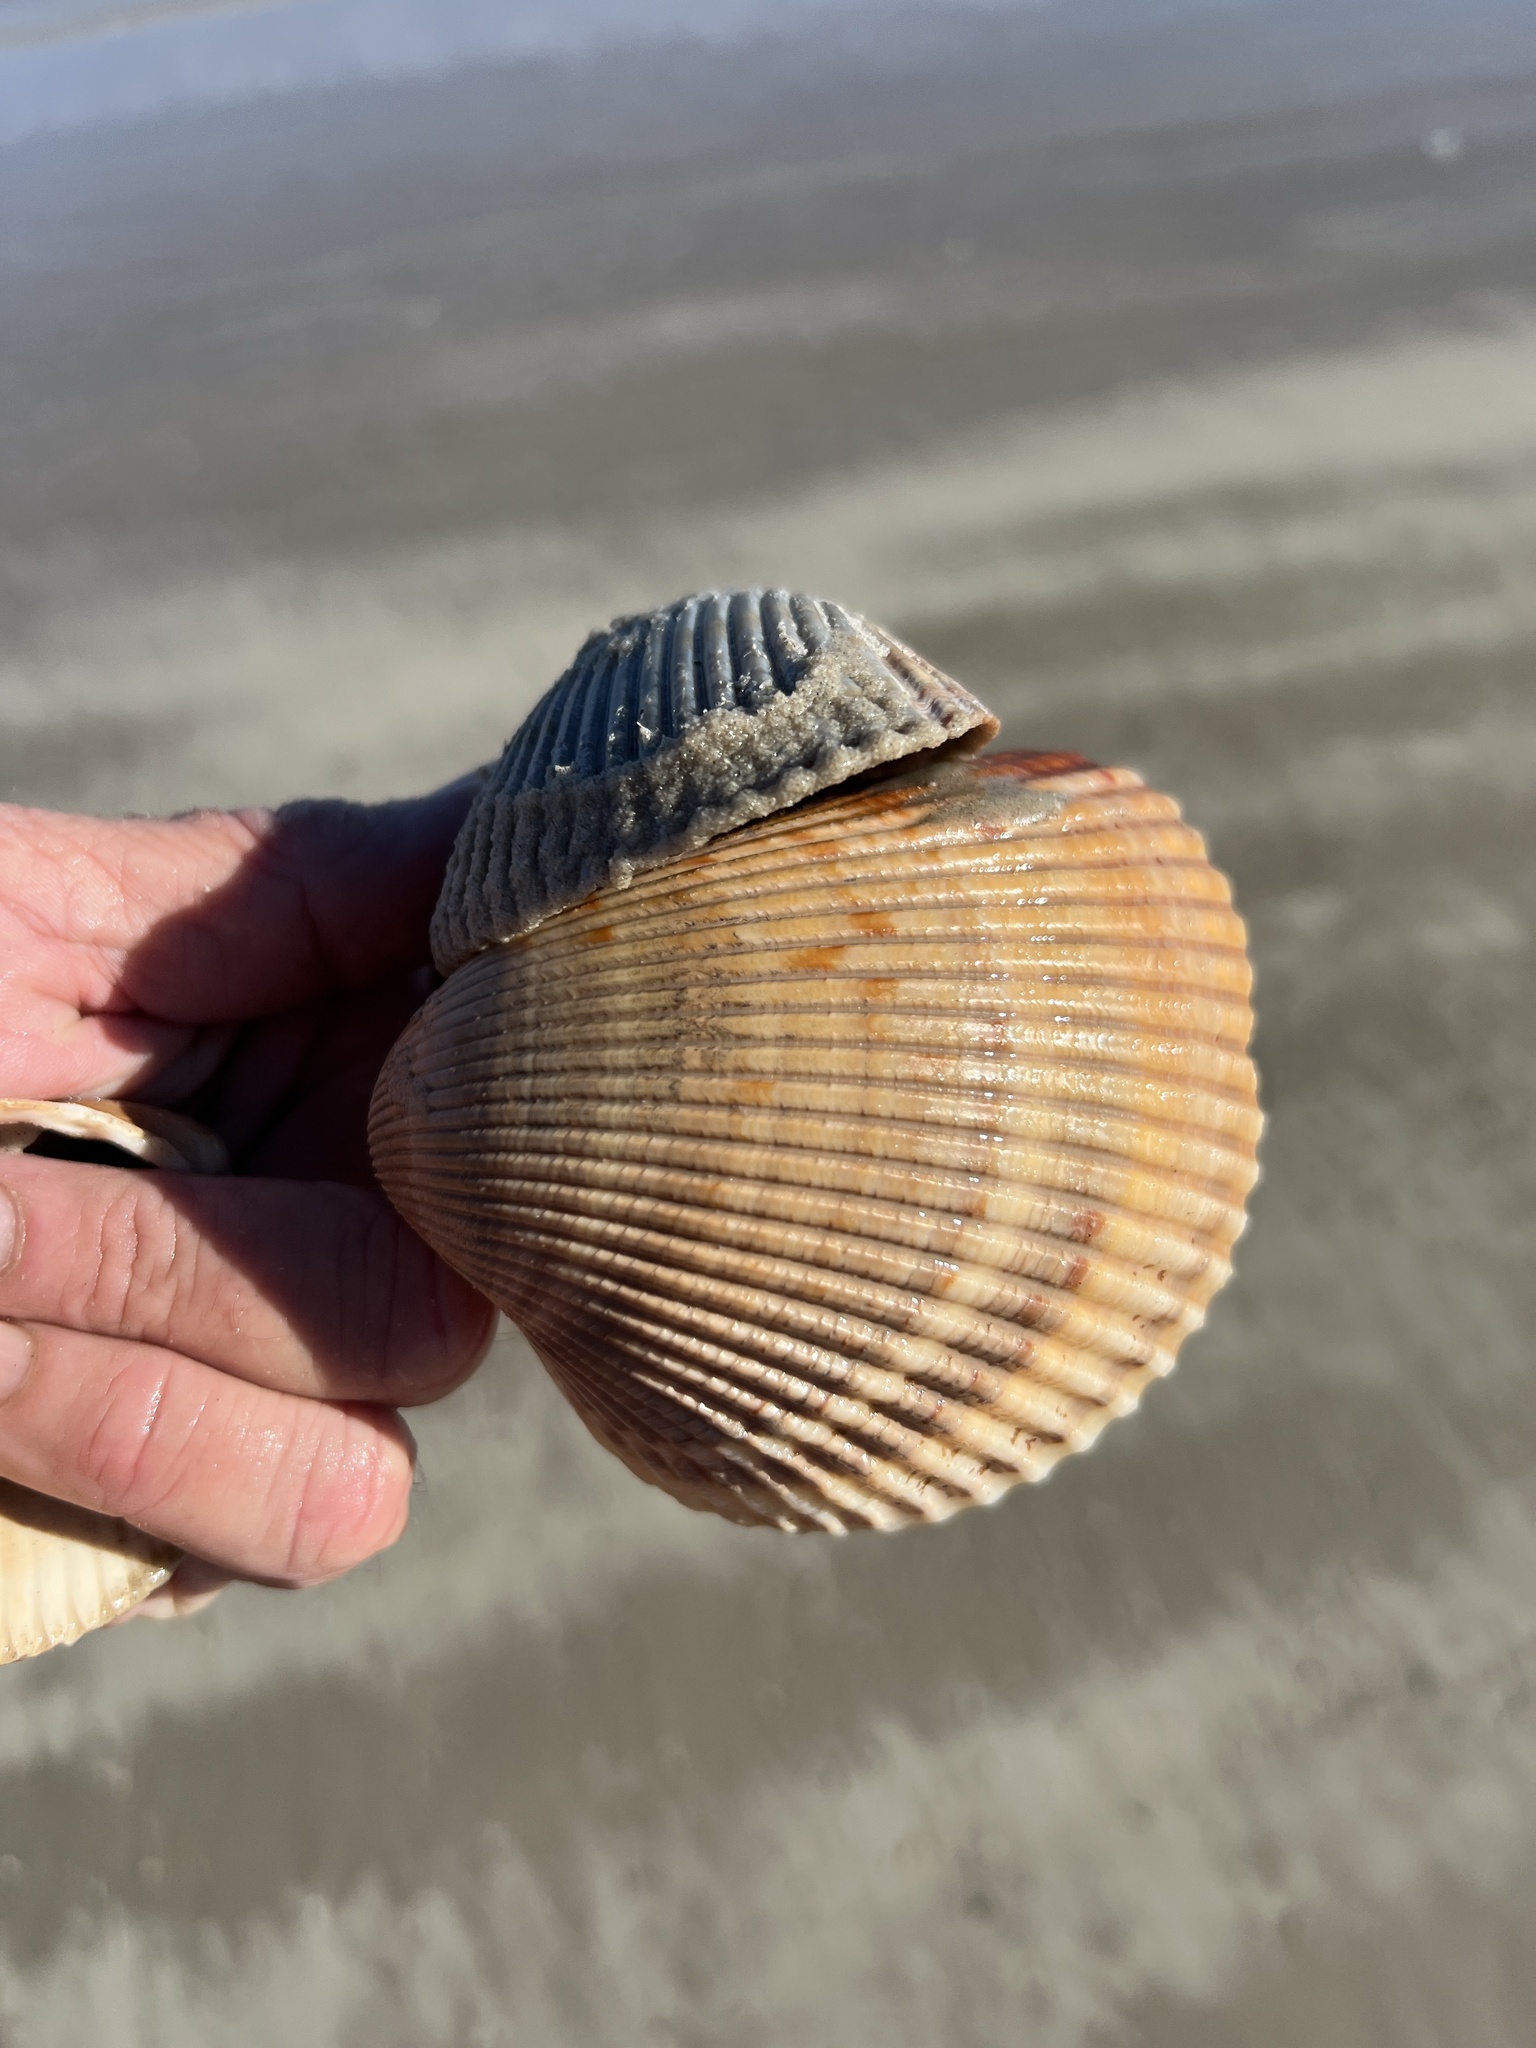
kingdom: Animalia
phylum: Mollusca
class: Bivalvia
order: Cardiida
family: Cardiidae
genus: Dinocardium
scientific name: Dinocardium robustum
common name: Atlantic giant cockle
